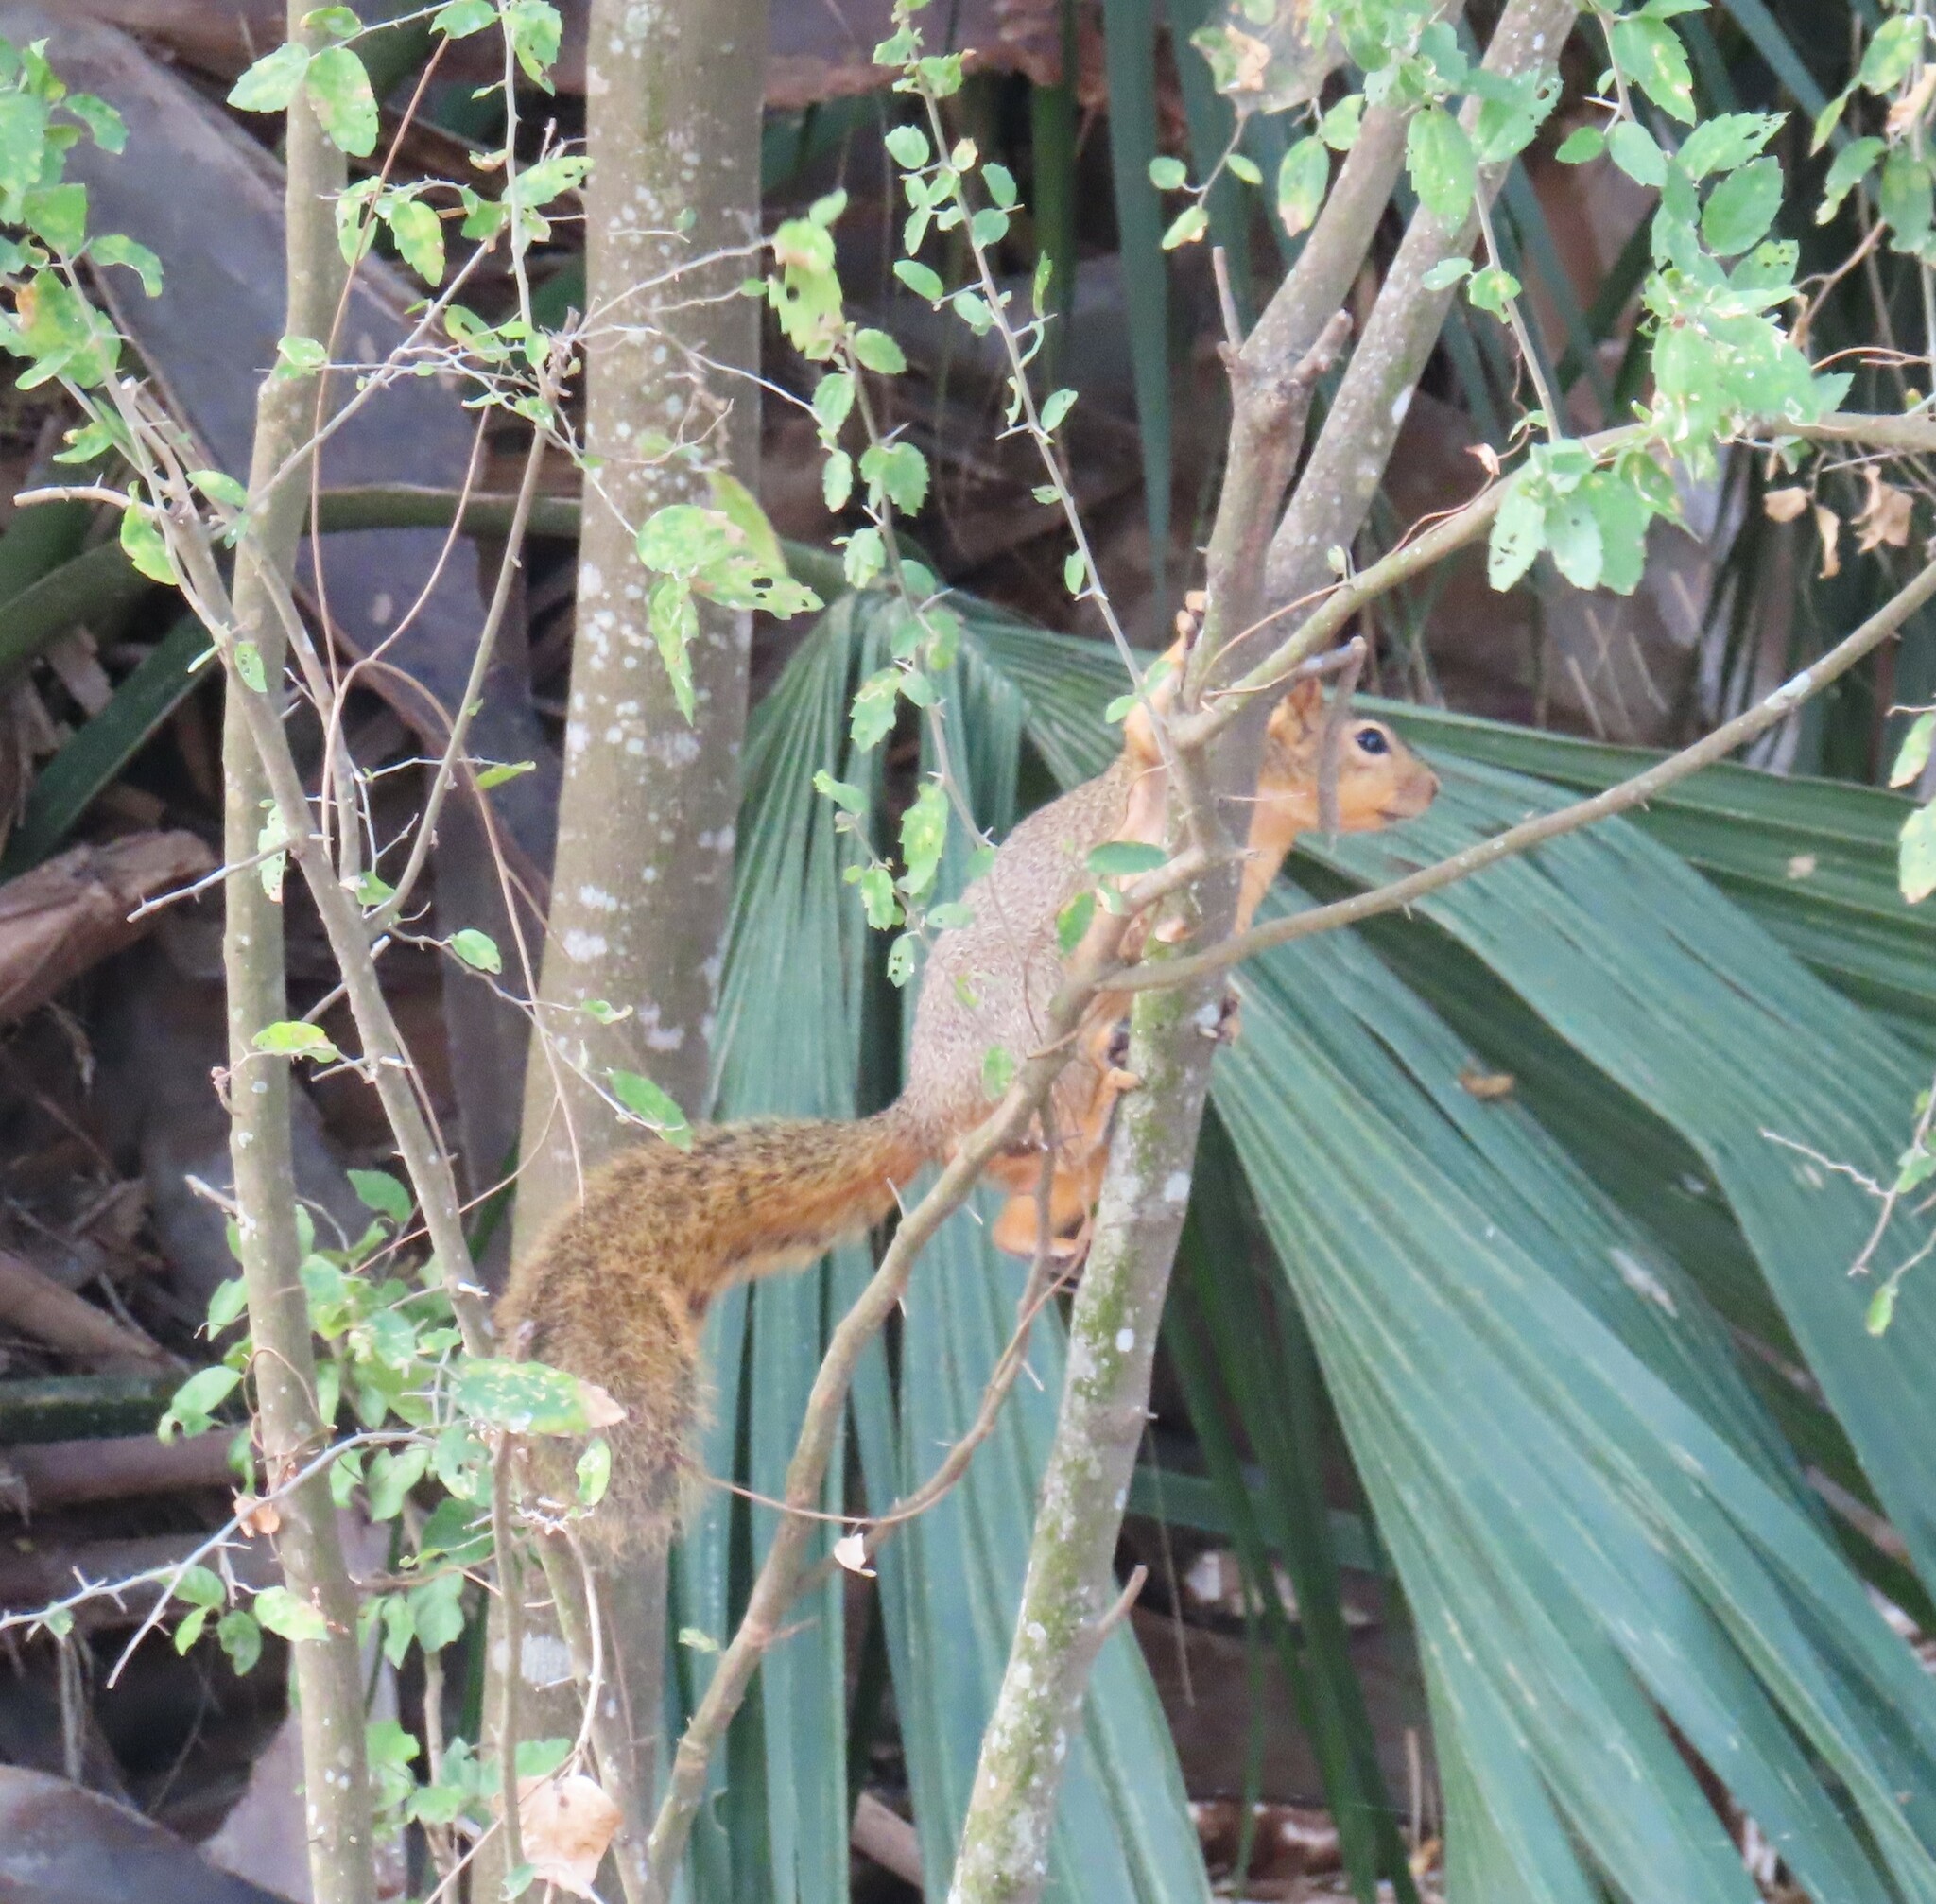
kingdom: Animalia
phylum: Chordata
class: Mammalia
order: Rodentia
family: Sciuridae
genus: Sciurus
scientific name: Sciurus niger
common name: Fox squirrel
